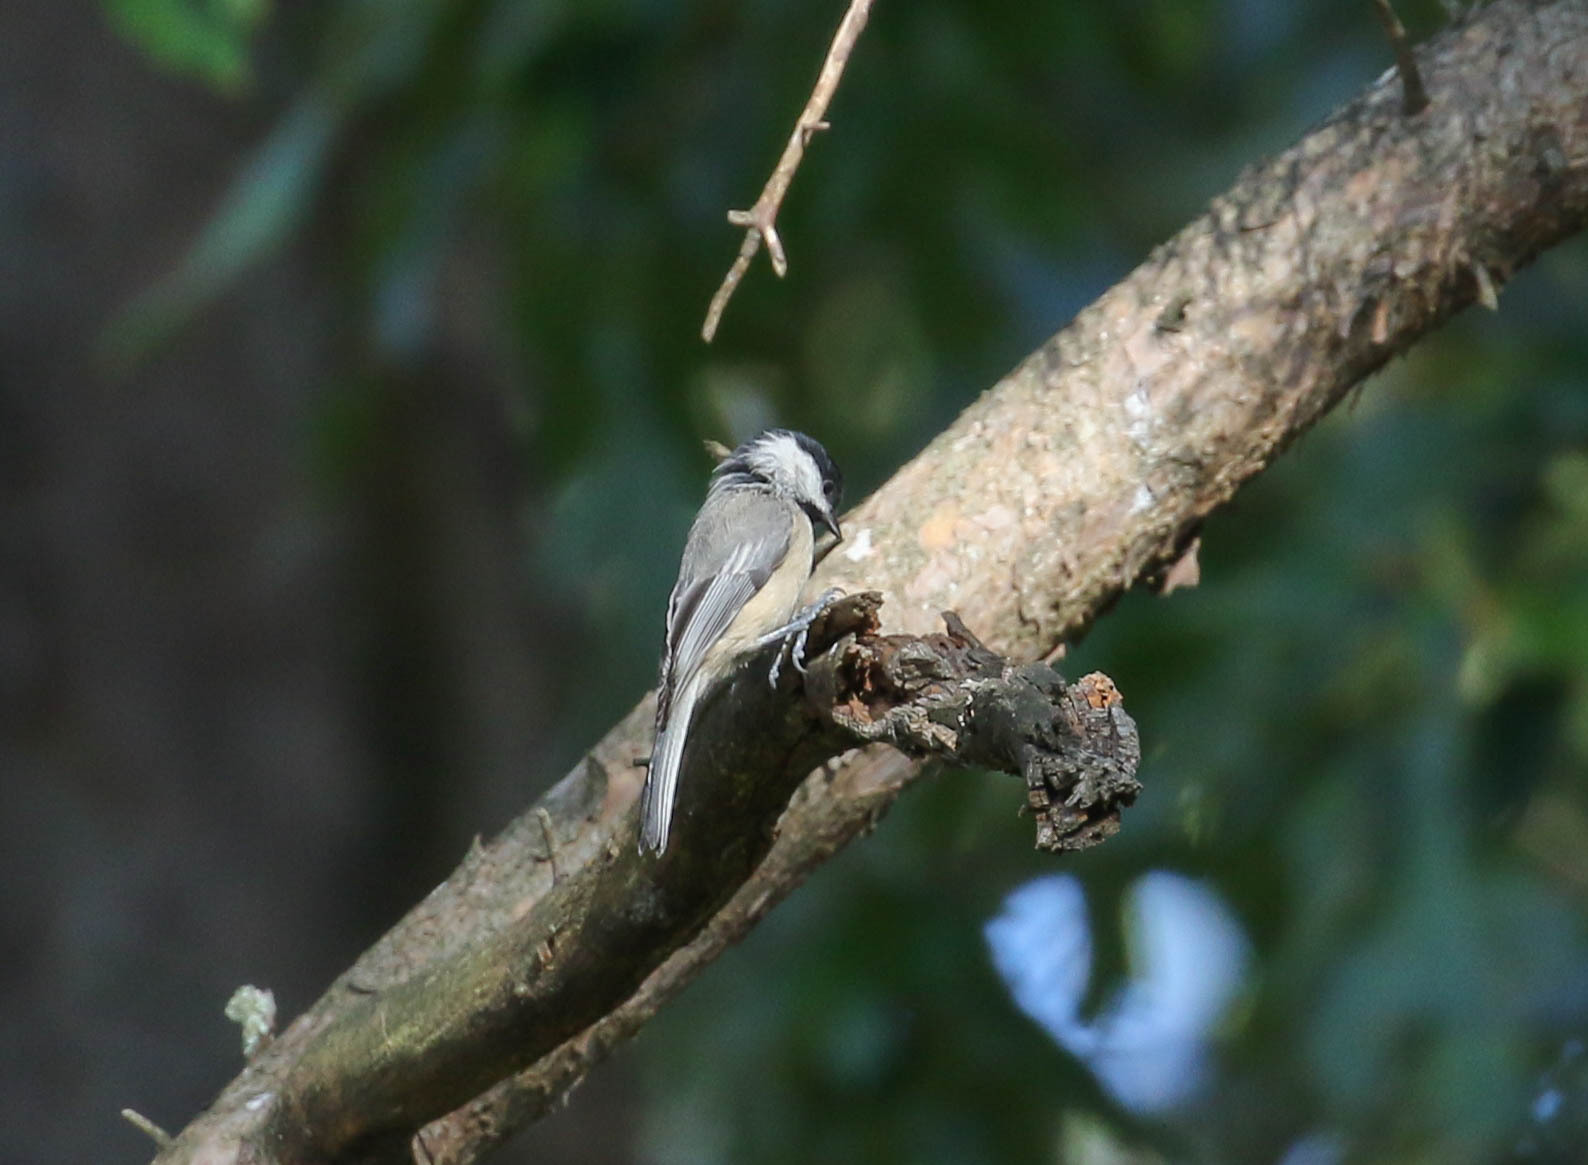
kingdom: Animalia
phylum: Chordata
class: Aves
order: Passeriformes
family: Paridae
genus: Poecile
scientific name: Poecile carolinensis
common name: Carolina chickadee
